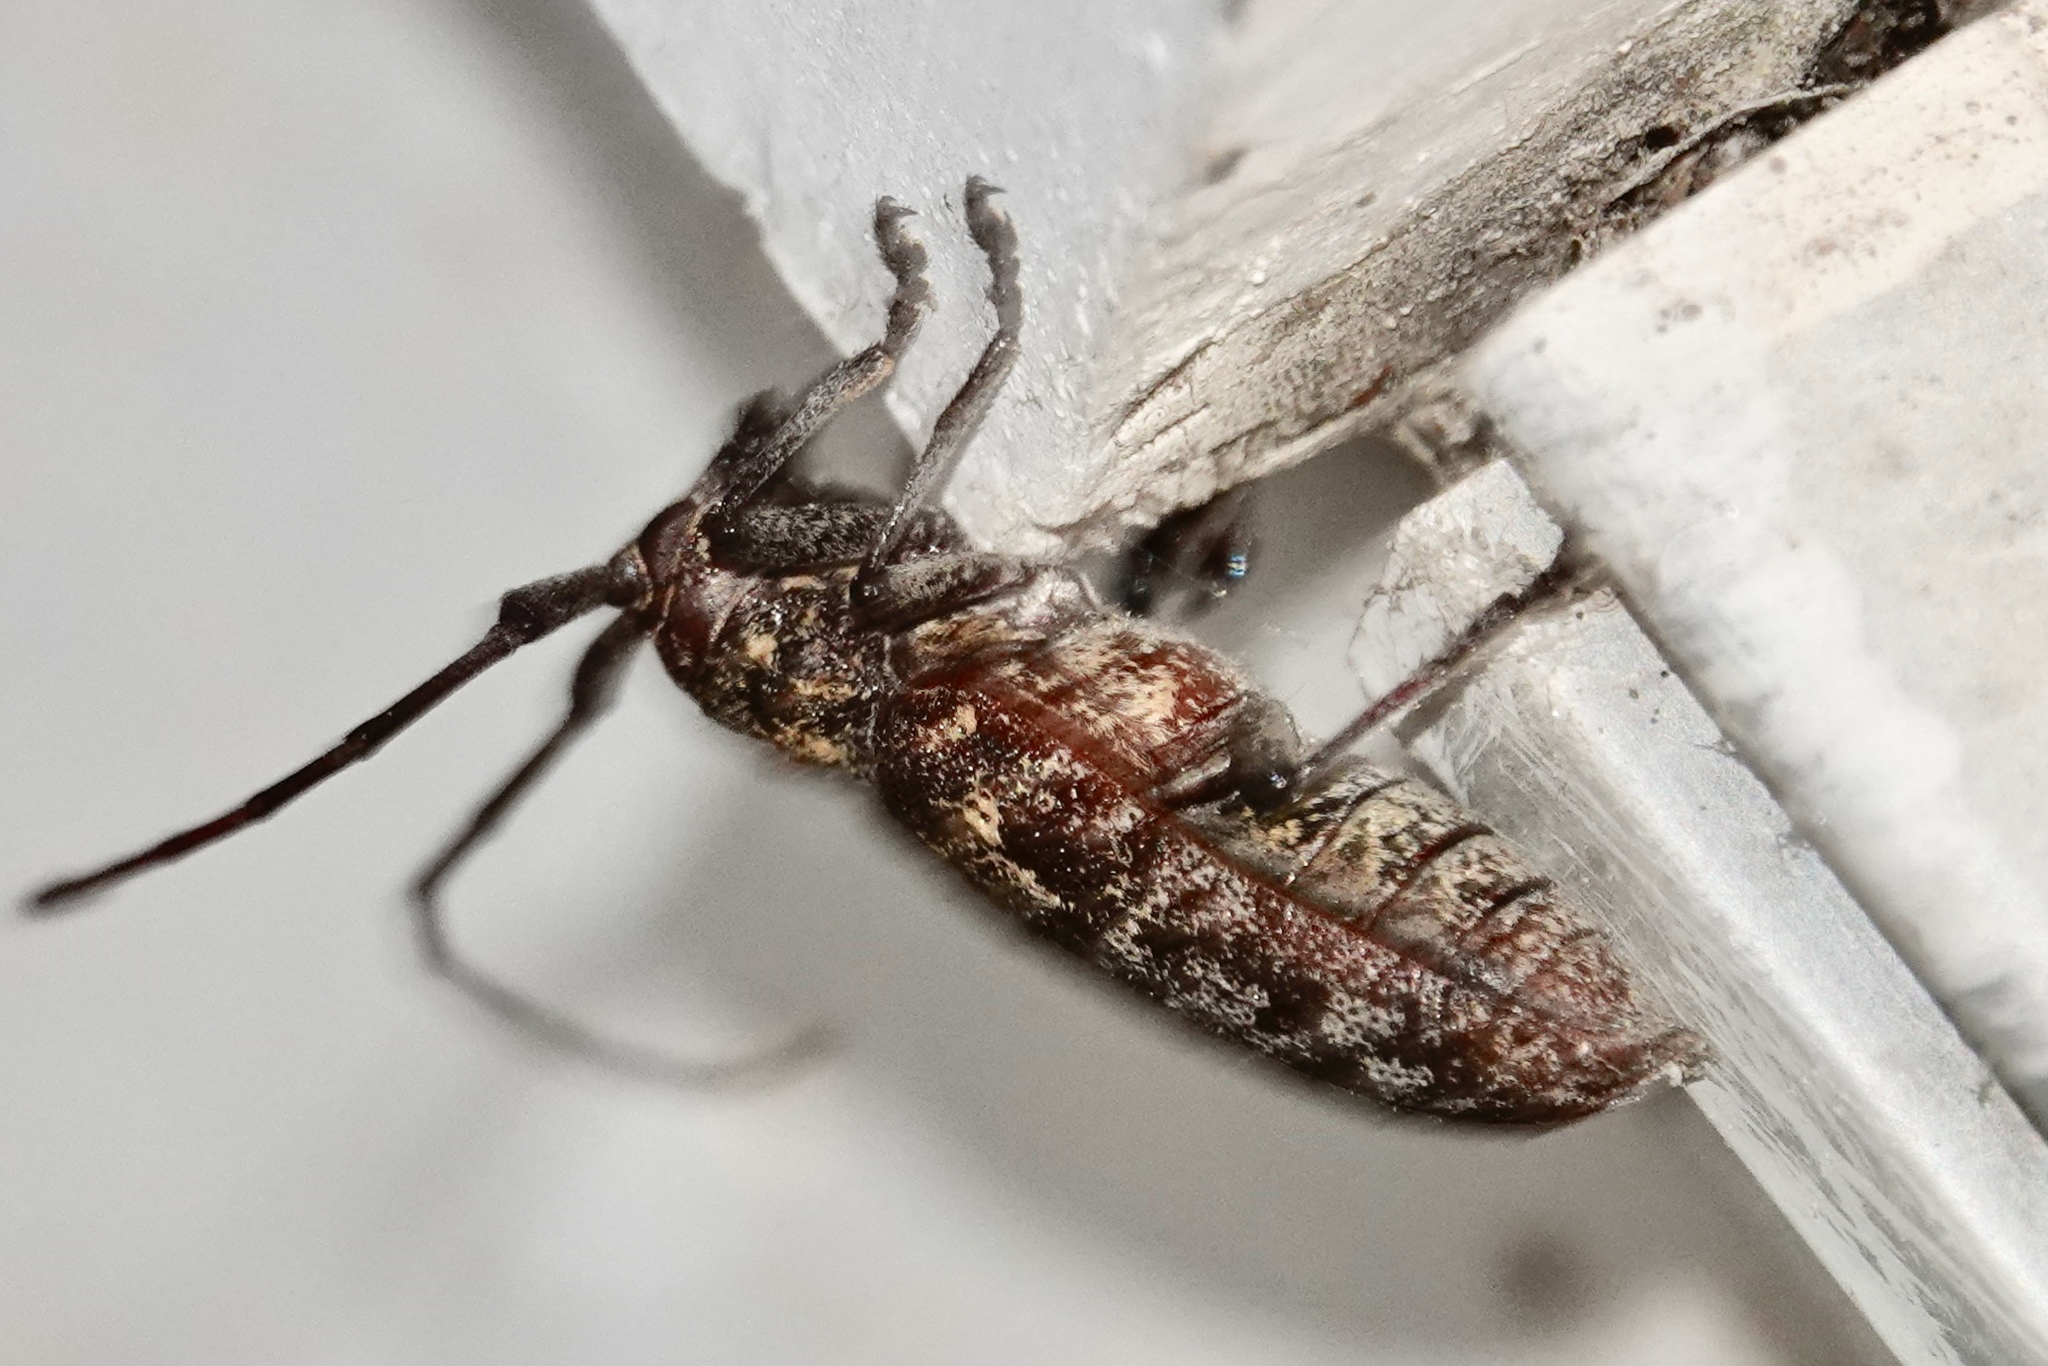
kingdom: Animalia
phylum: Arthropoda
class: Insecta
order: Coleoptera
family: Cerambycidae
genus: Monochamus
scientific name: Monochamus carolinensis
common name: Carolina pine sawyer
